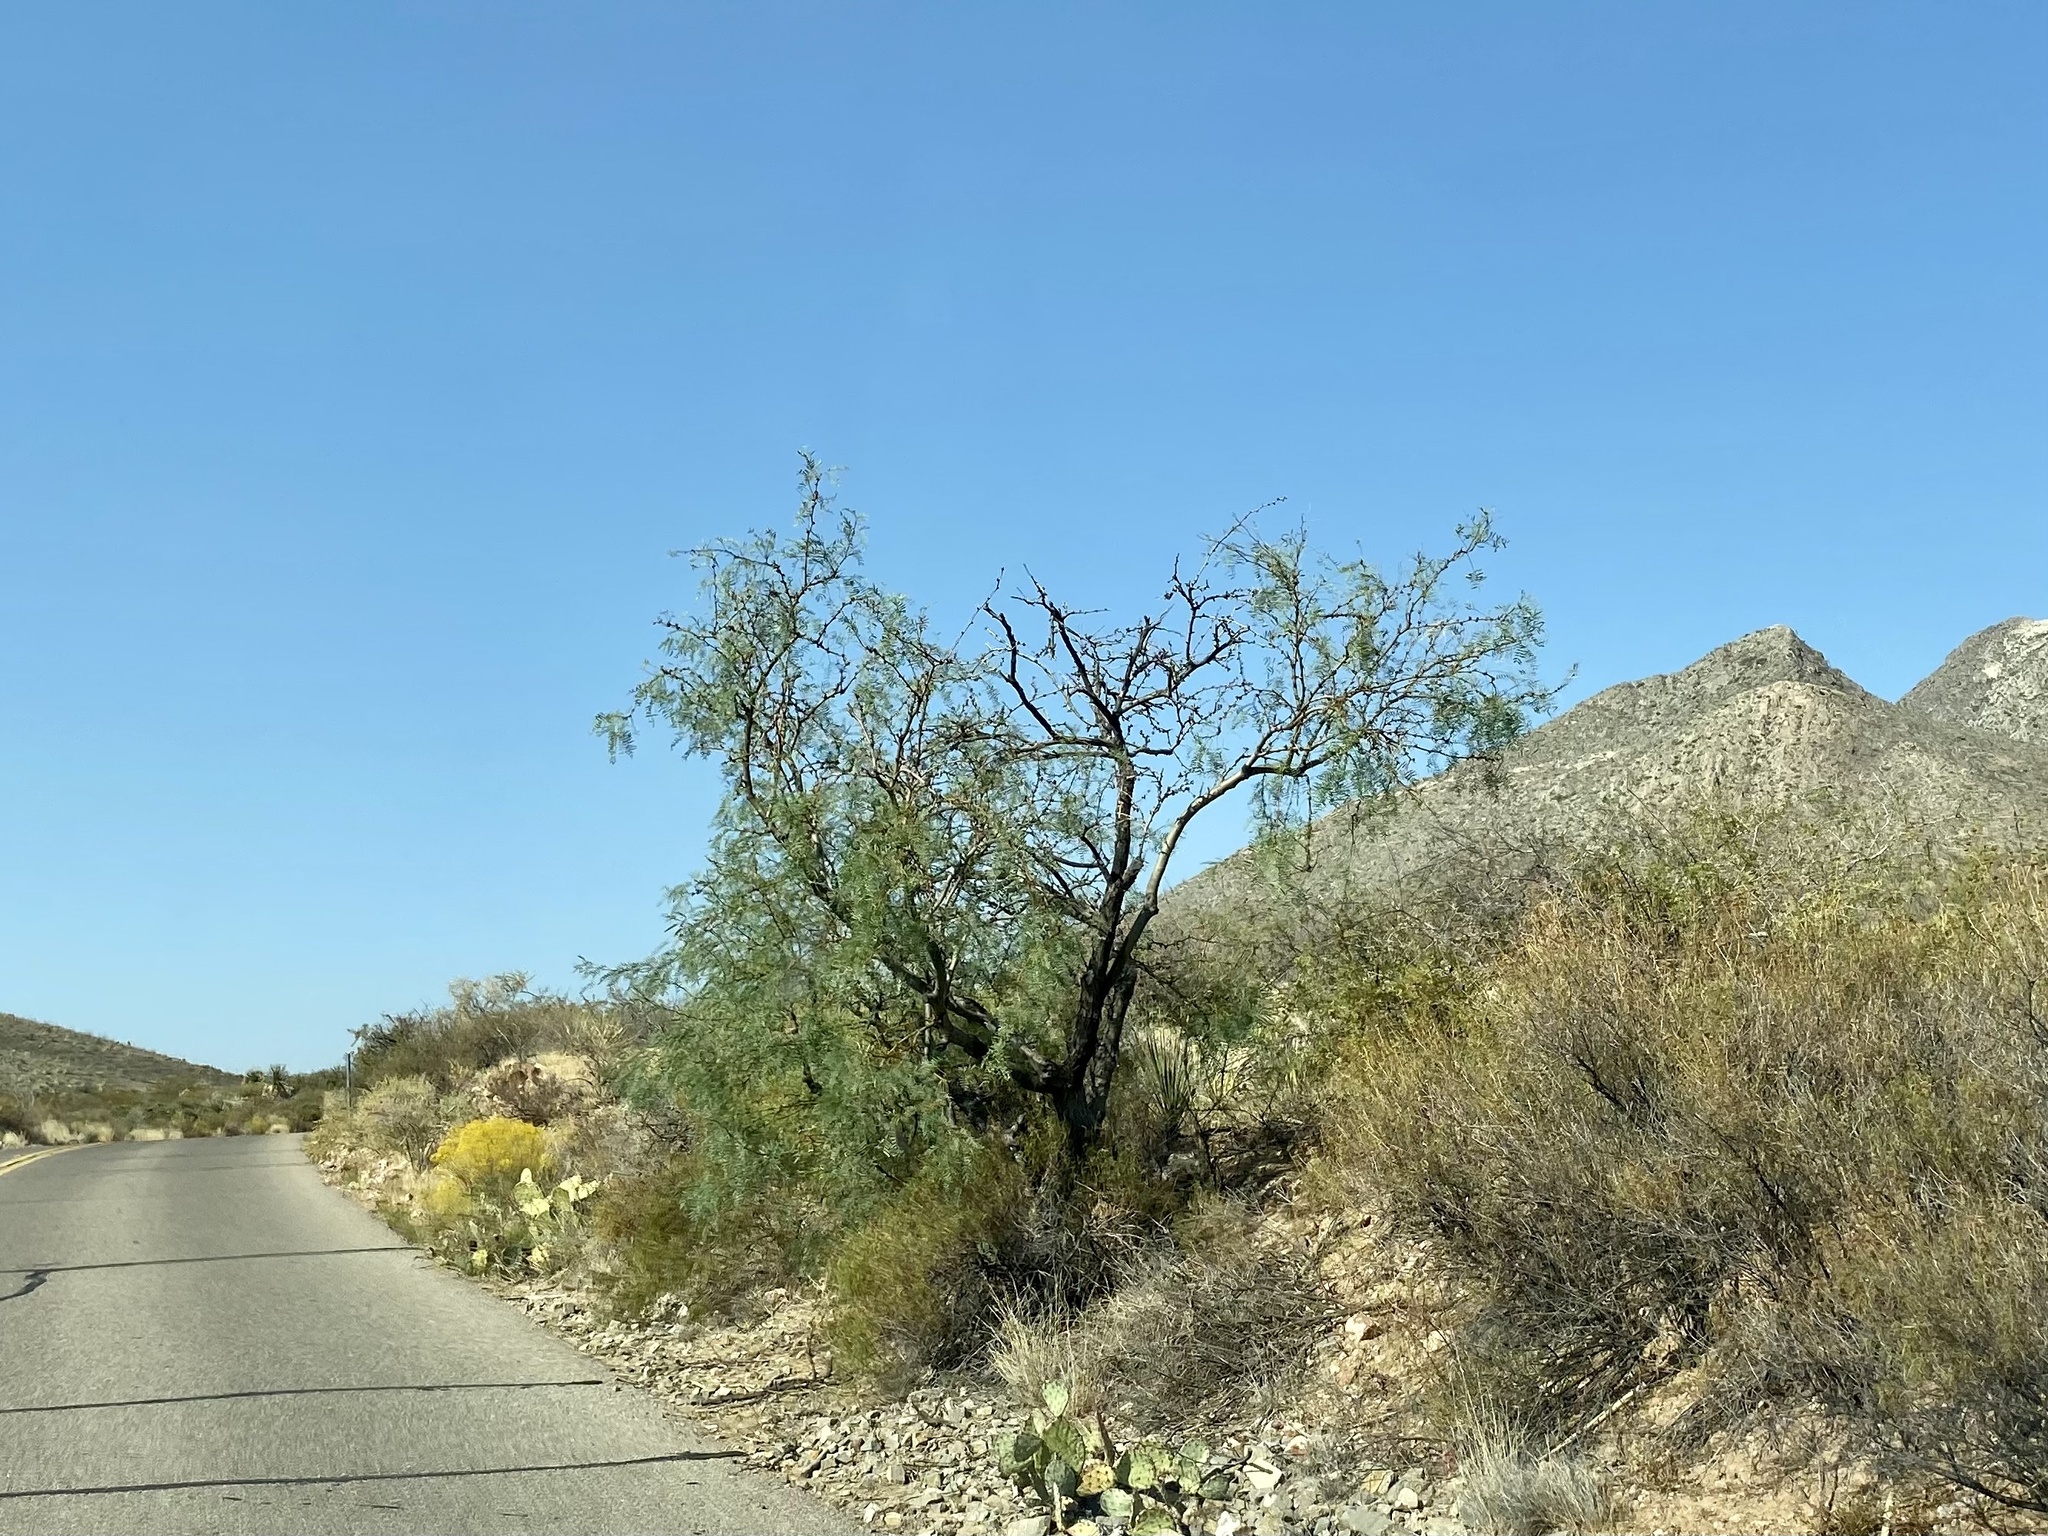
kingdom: Plantae
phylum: Tracheophyta
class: Magnoliopsida
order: Fabales
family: Fabaceae
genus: Prosopis
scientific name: Prosopis glandulosa
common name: Honey mesquite
